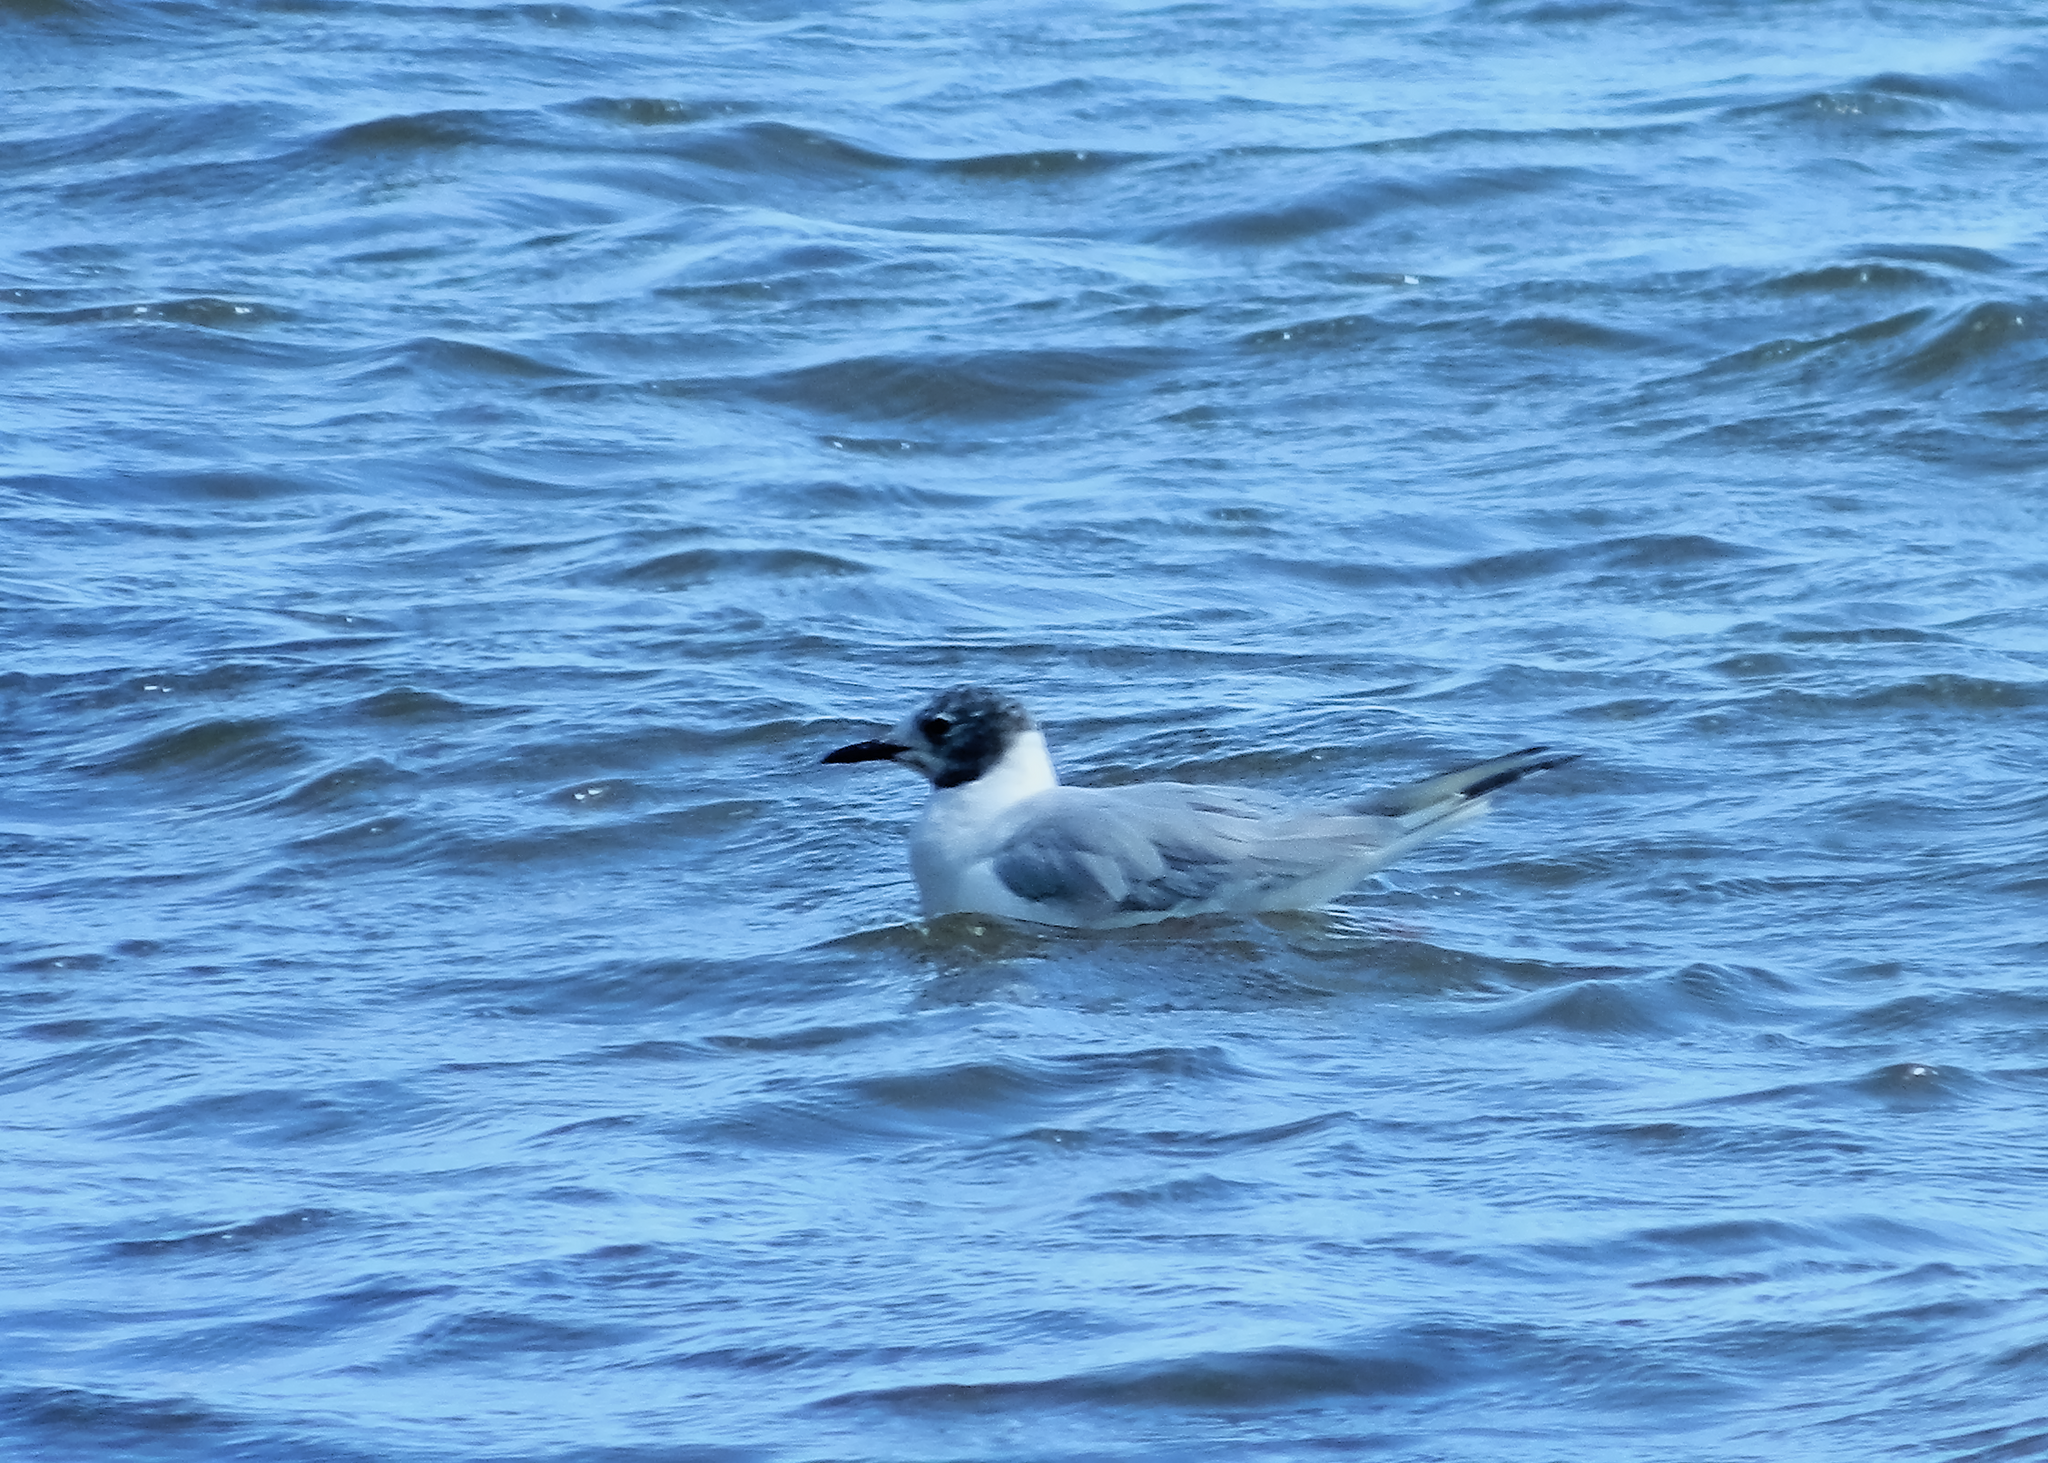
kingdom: Animalia
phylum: Chordata
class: Aves
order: Charadriiformes
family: Laridae
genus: Chroicocephalus
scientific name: Chroicocephalus philadelphia
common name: Bonaparte's gull
